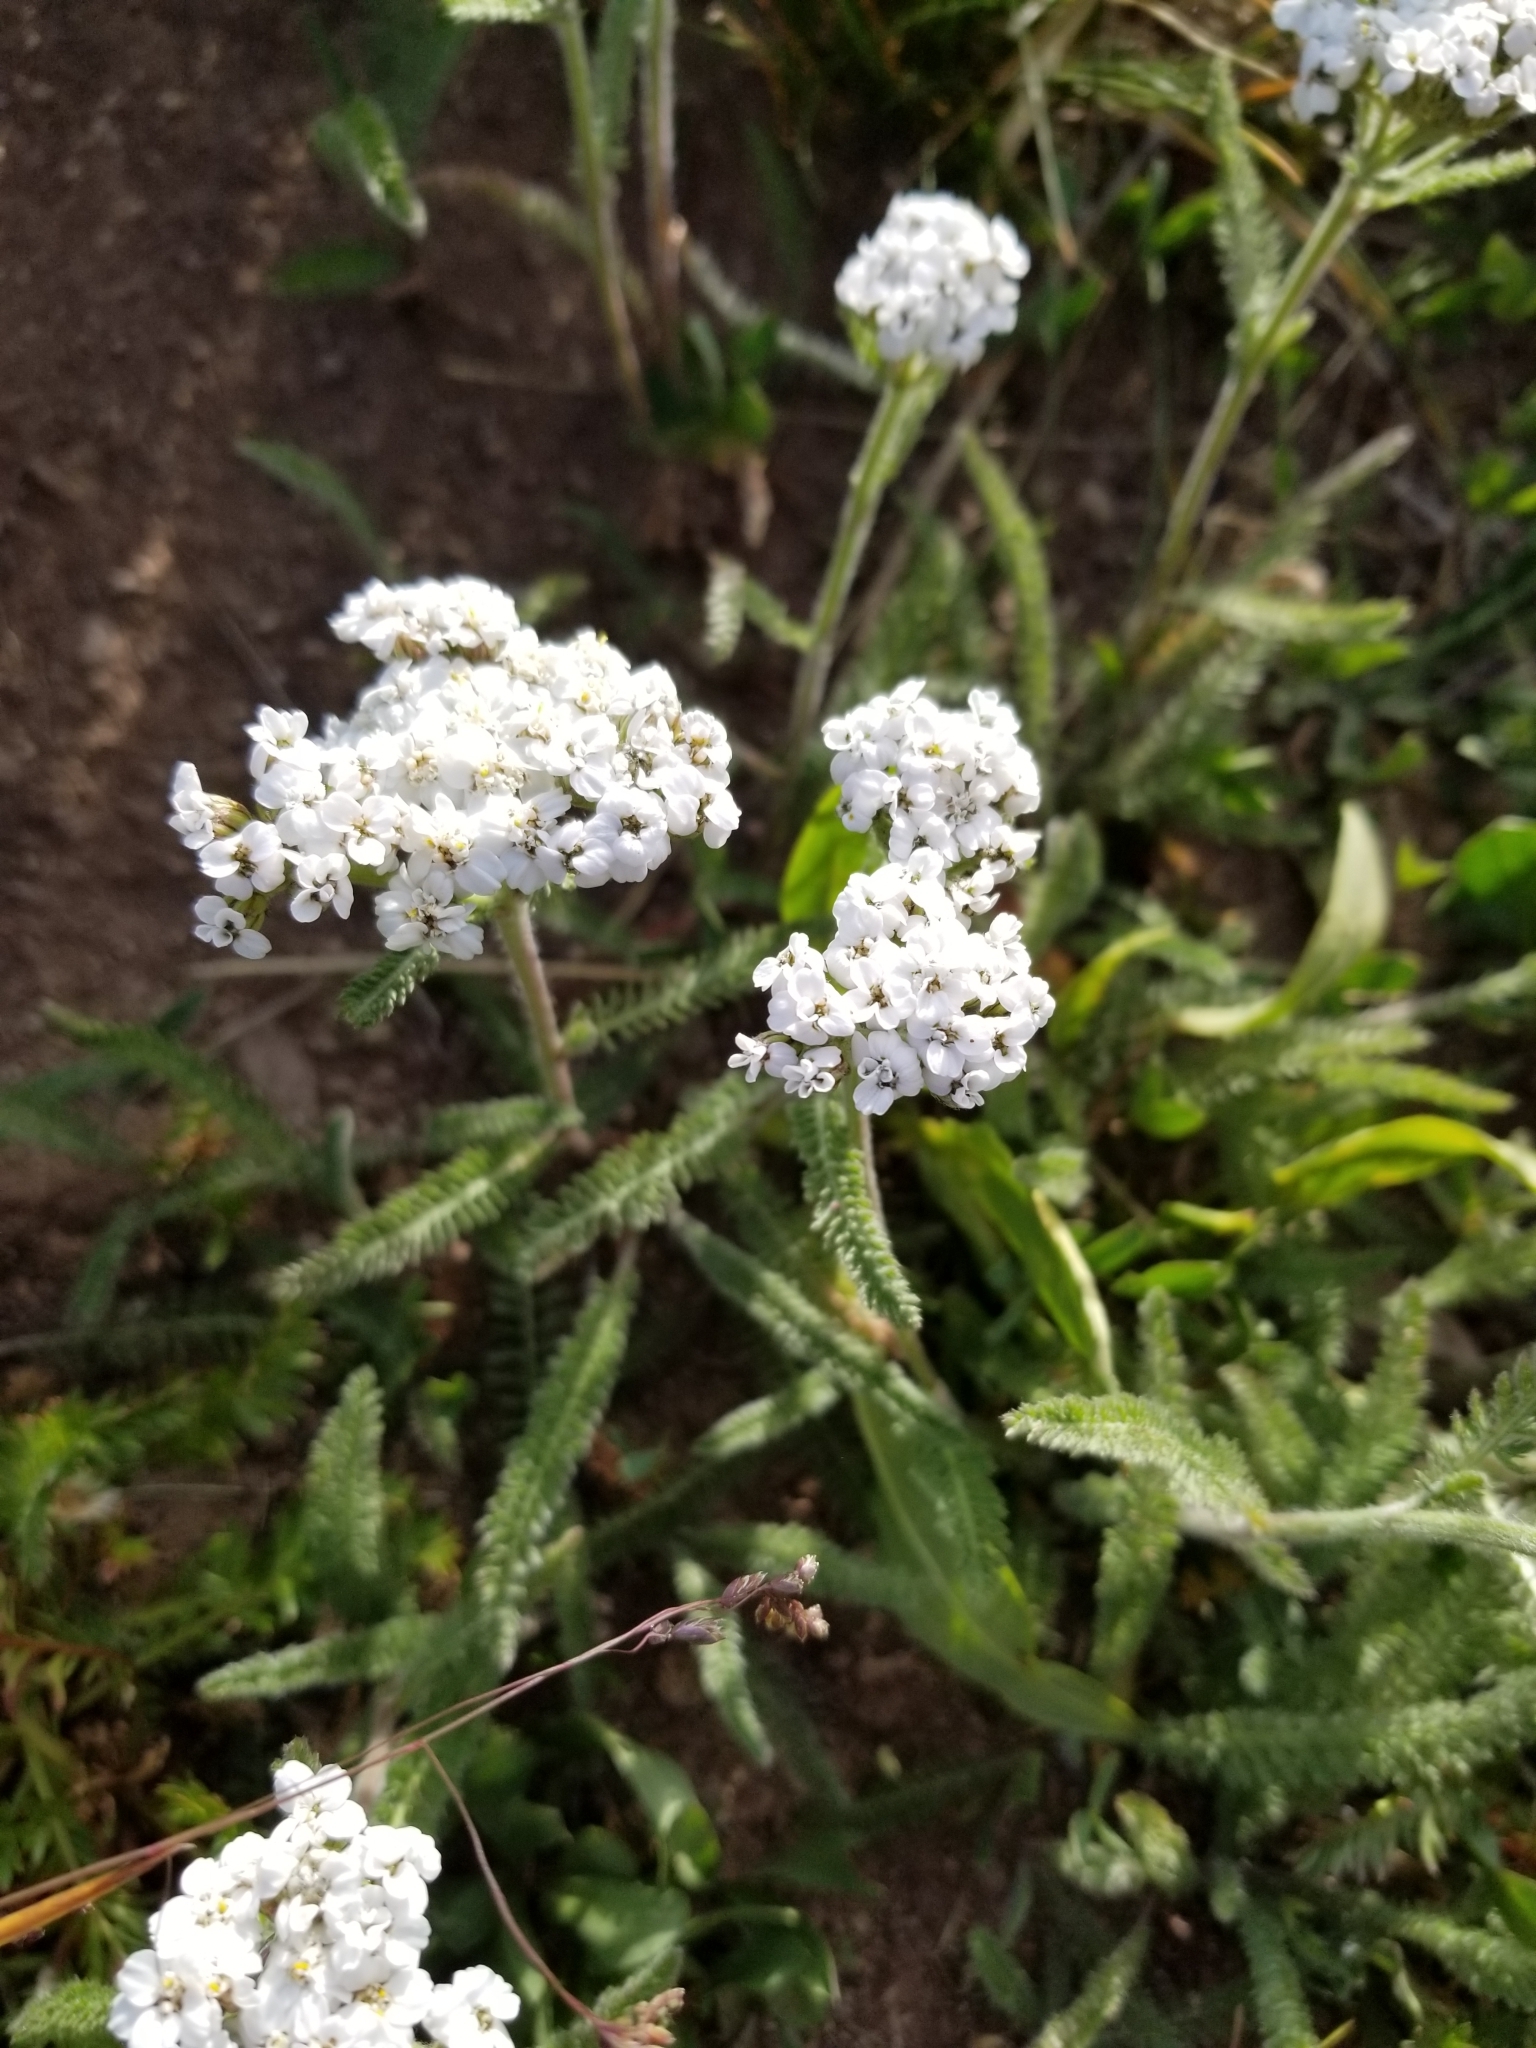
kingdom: Plantae
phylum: Tracheophyta
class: Magnoliopsida
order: Asterales
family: Asteraceae
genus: Achillea
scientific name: Achillea millefolium
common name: Yarrow
